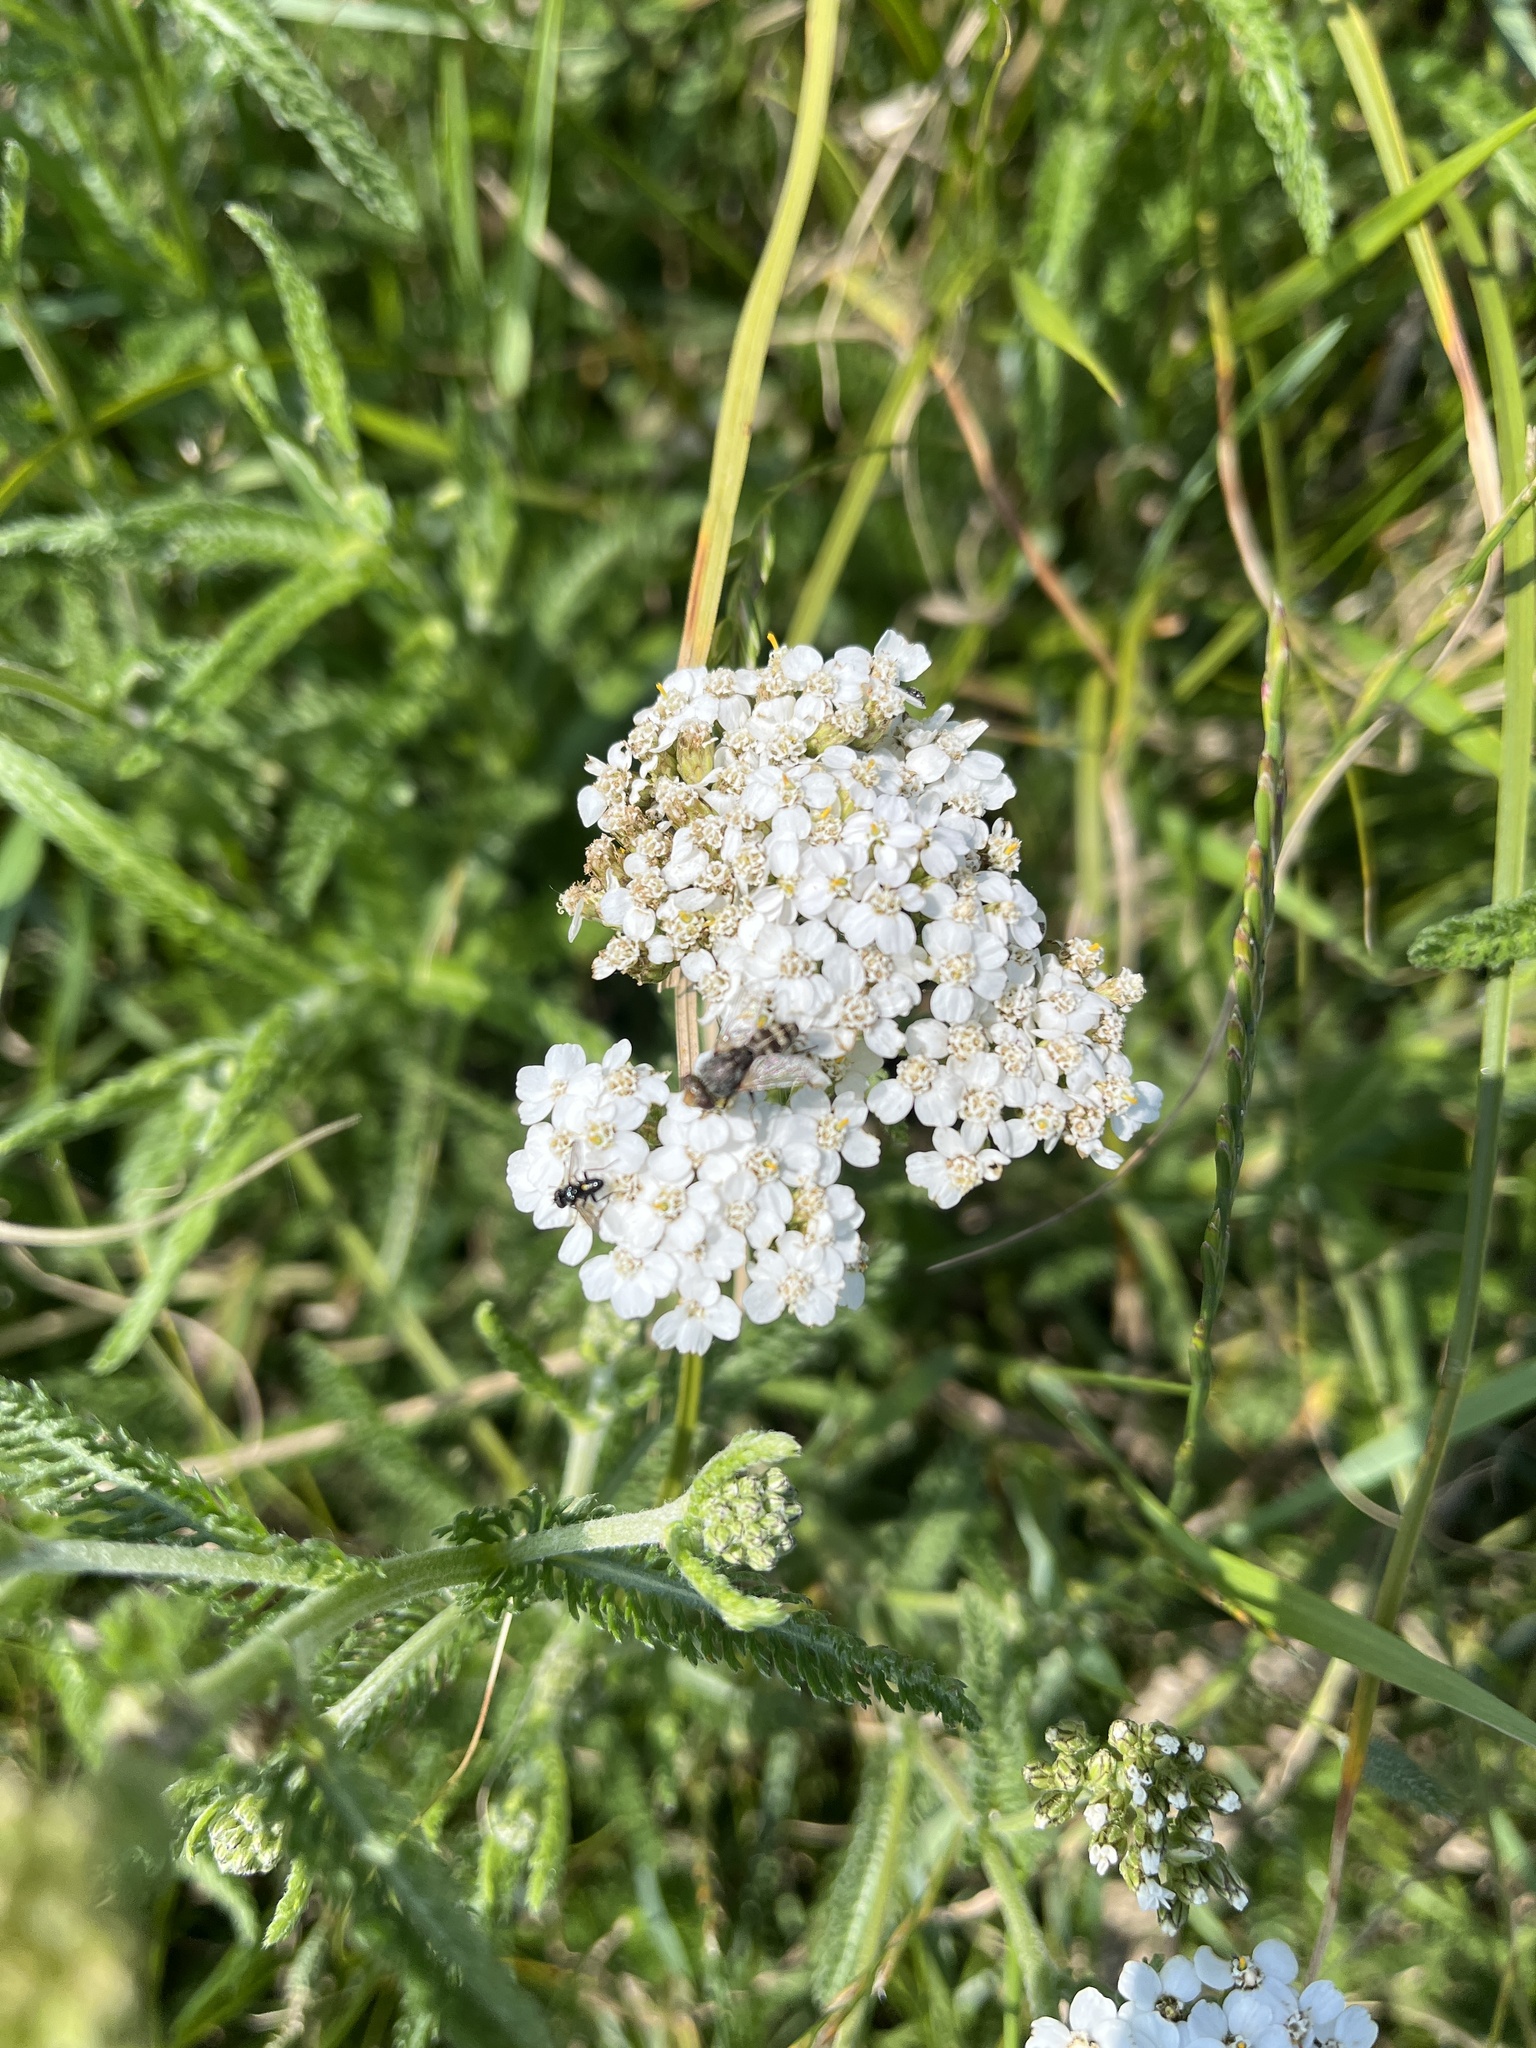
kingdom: Plantae
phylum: Tracheophyta
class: Magnoliopsida
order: Asterales
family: Asteraceae
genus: Achillea
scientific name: Achillea millefolium
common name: Yarrow
